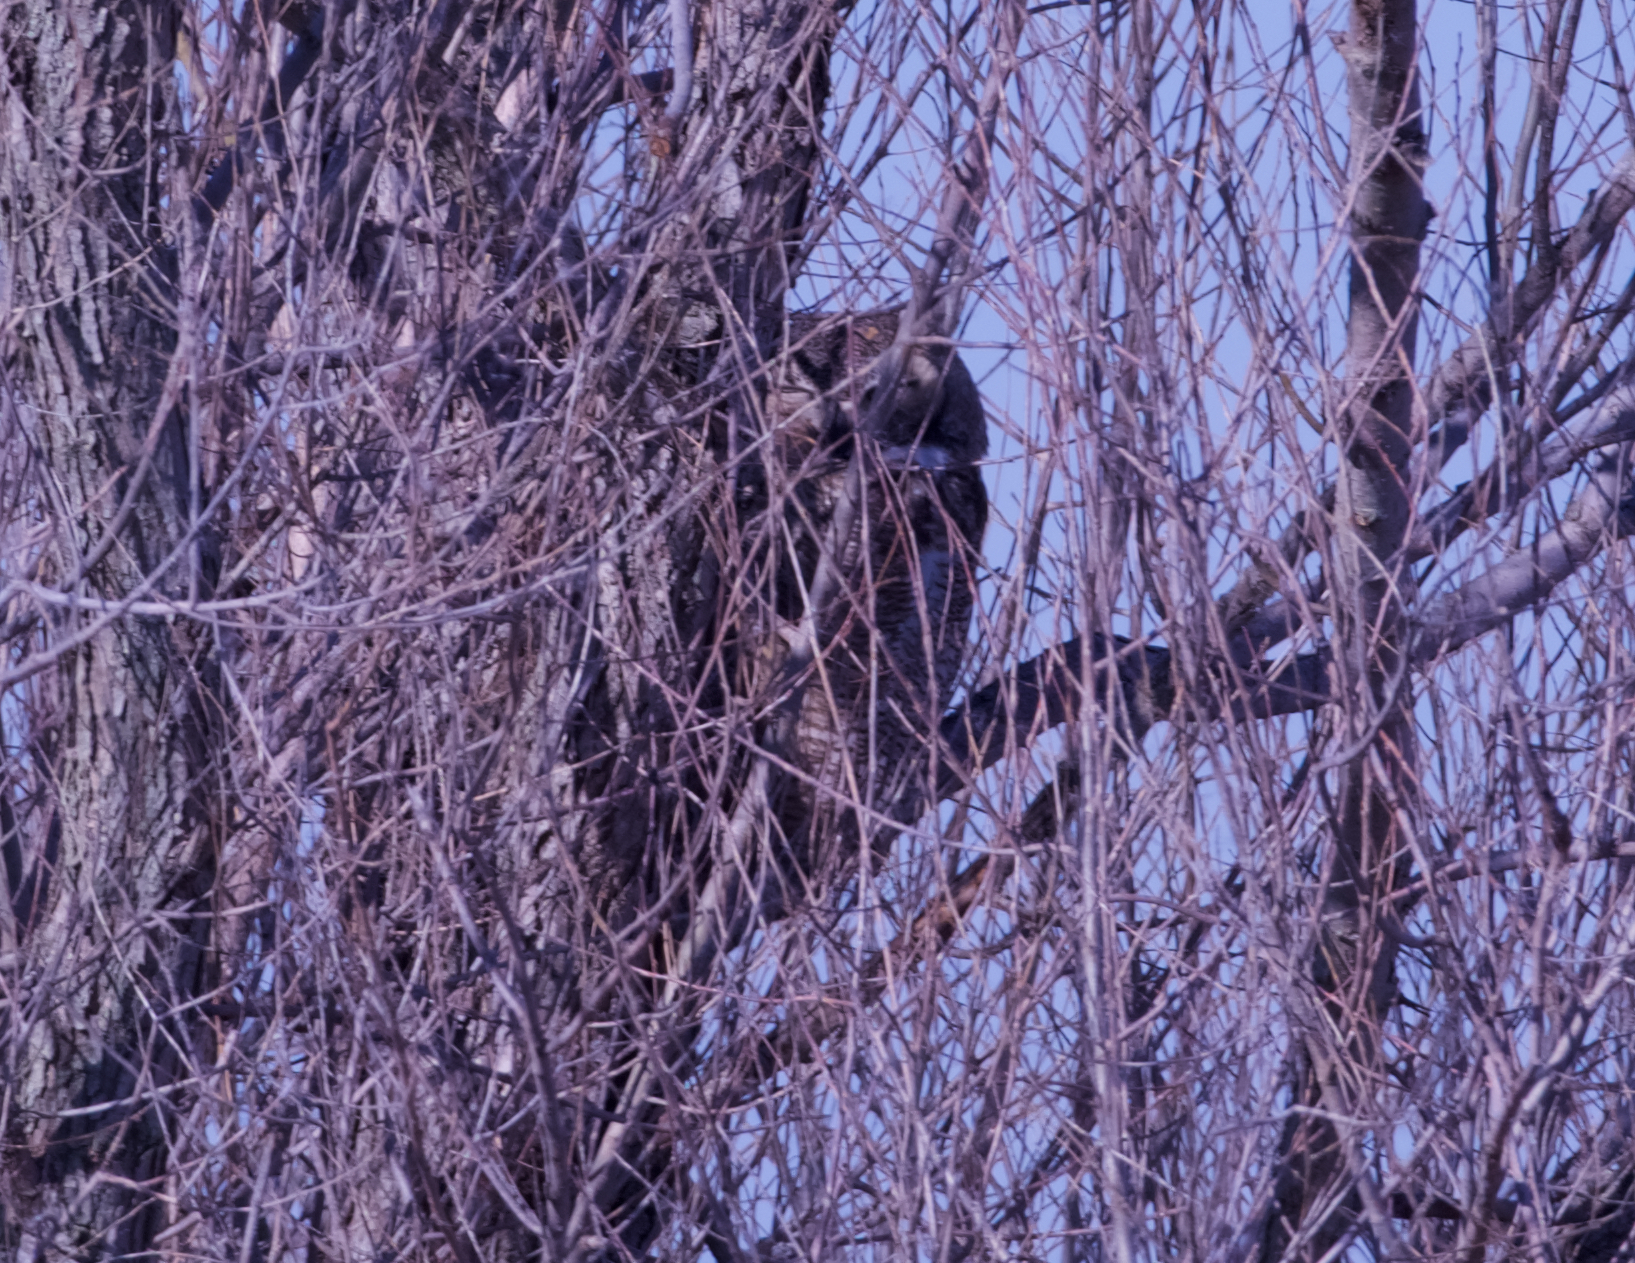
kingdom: Animalia
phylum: Chordata
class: Aves
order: Strigiformes
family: Strigidae
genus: Bubo
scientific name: Bubo virginianus
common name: Great horned owl
